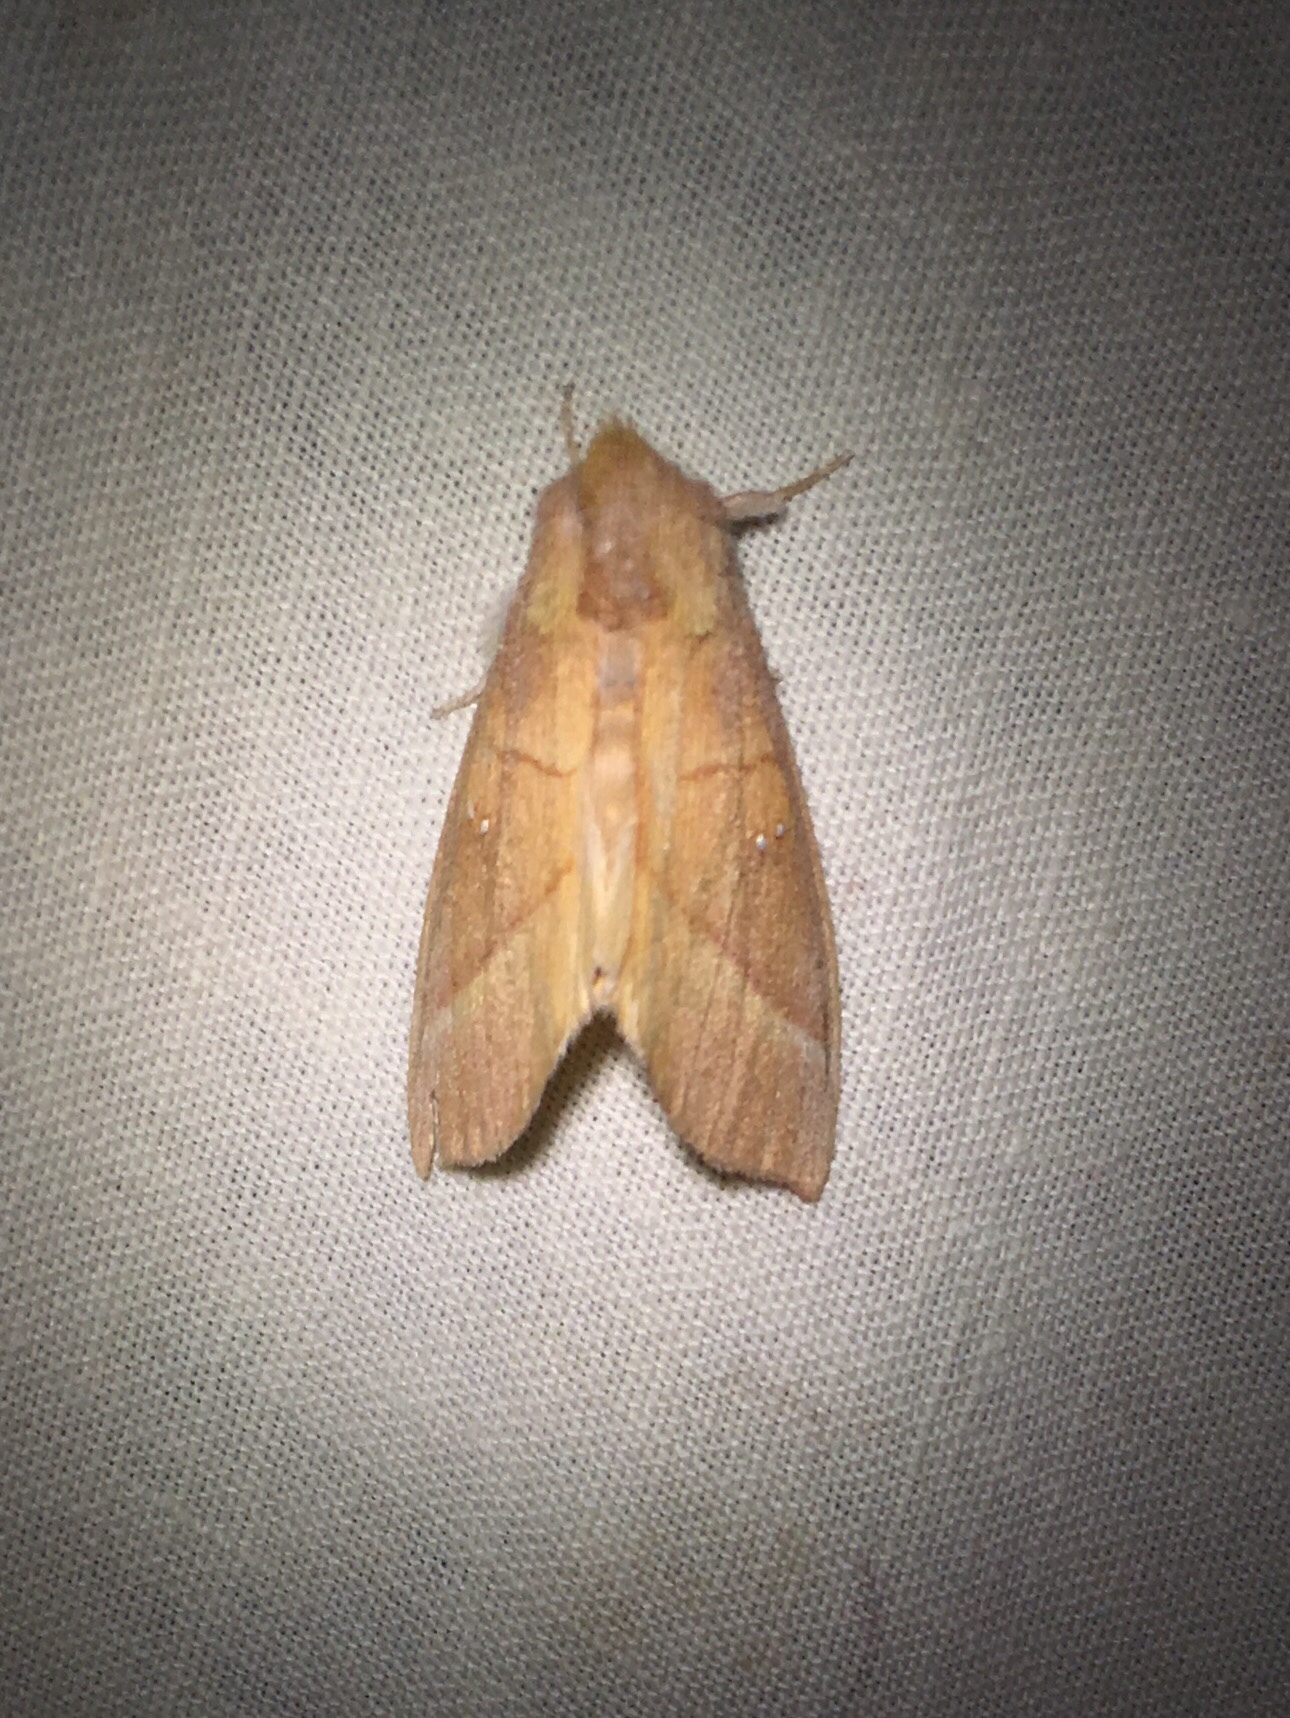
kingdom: Animalia
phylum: Arthropoda
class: Insecta
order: Lepidoptera
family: Notodontidae
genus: Nadata
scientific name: Nadata gibbosa
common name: White-dotted prominent
